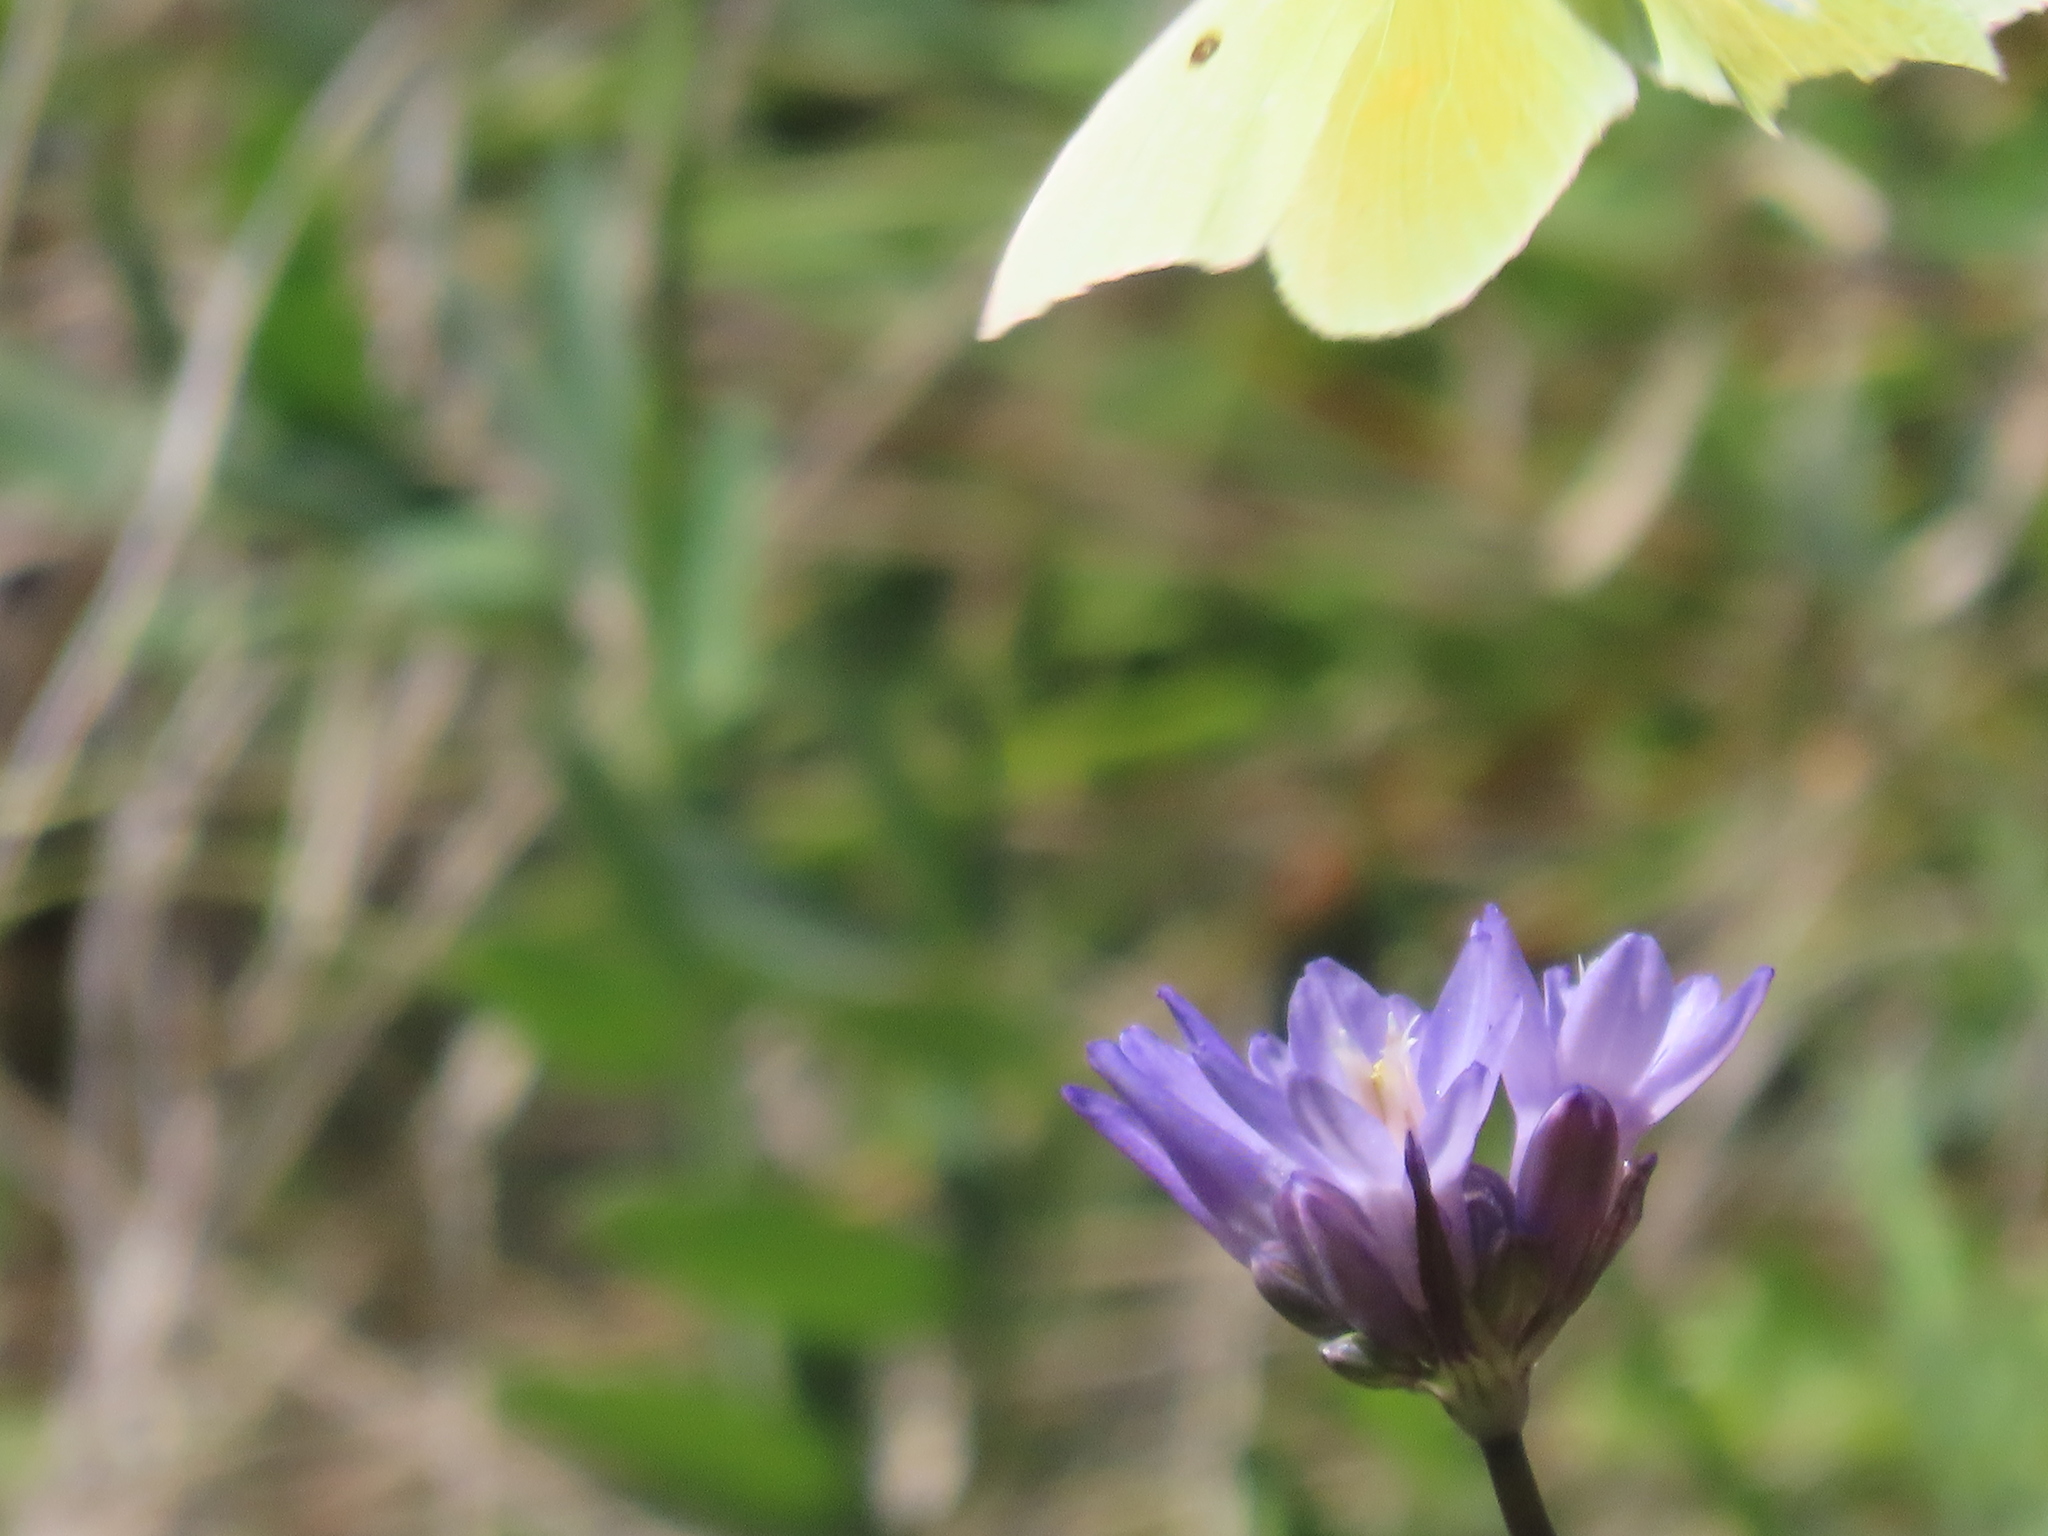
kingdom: Animalia
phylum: Arthropoda
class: Insecta
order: Lepidoptera
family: Pieridae
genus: Zerene
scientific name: Zerene eurydice
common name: California dogface
